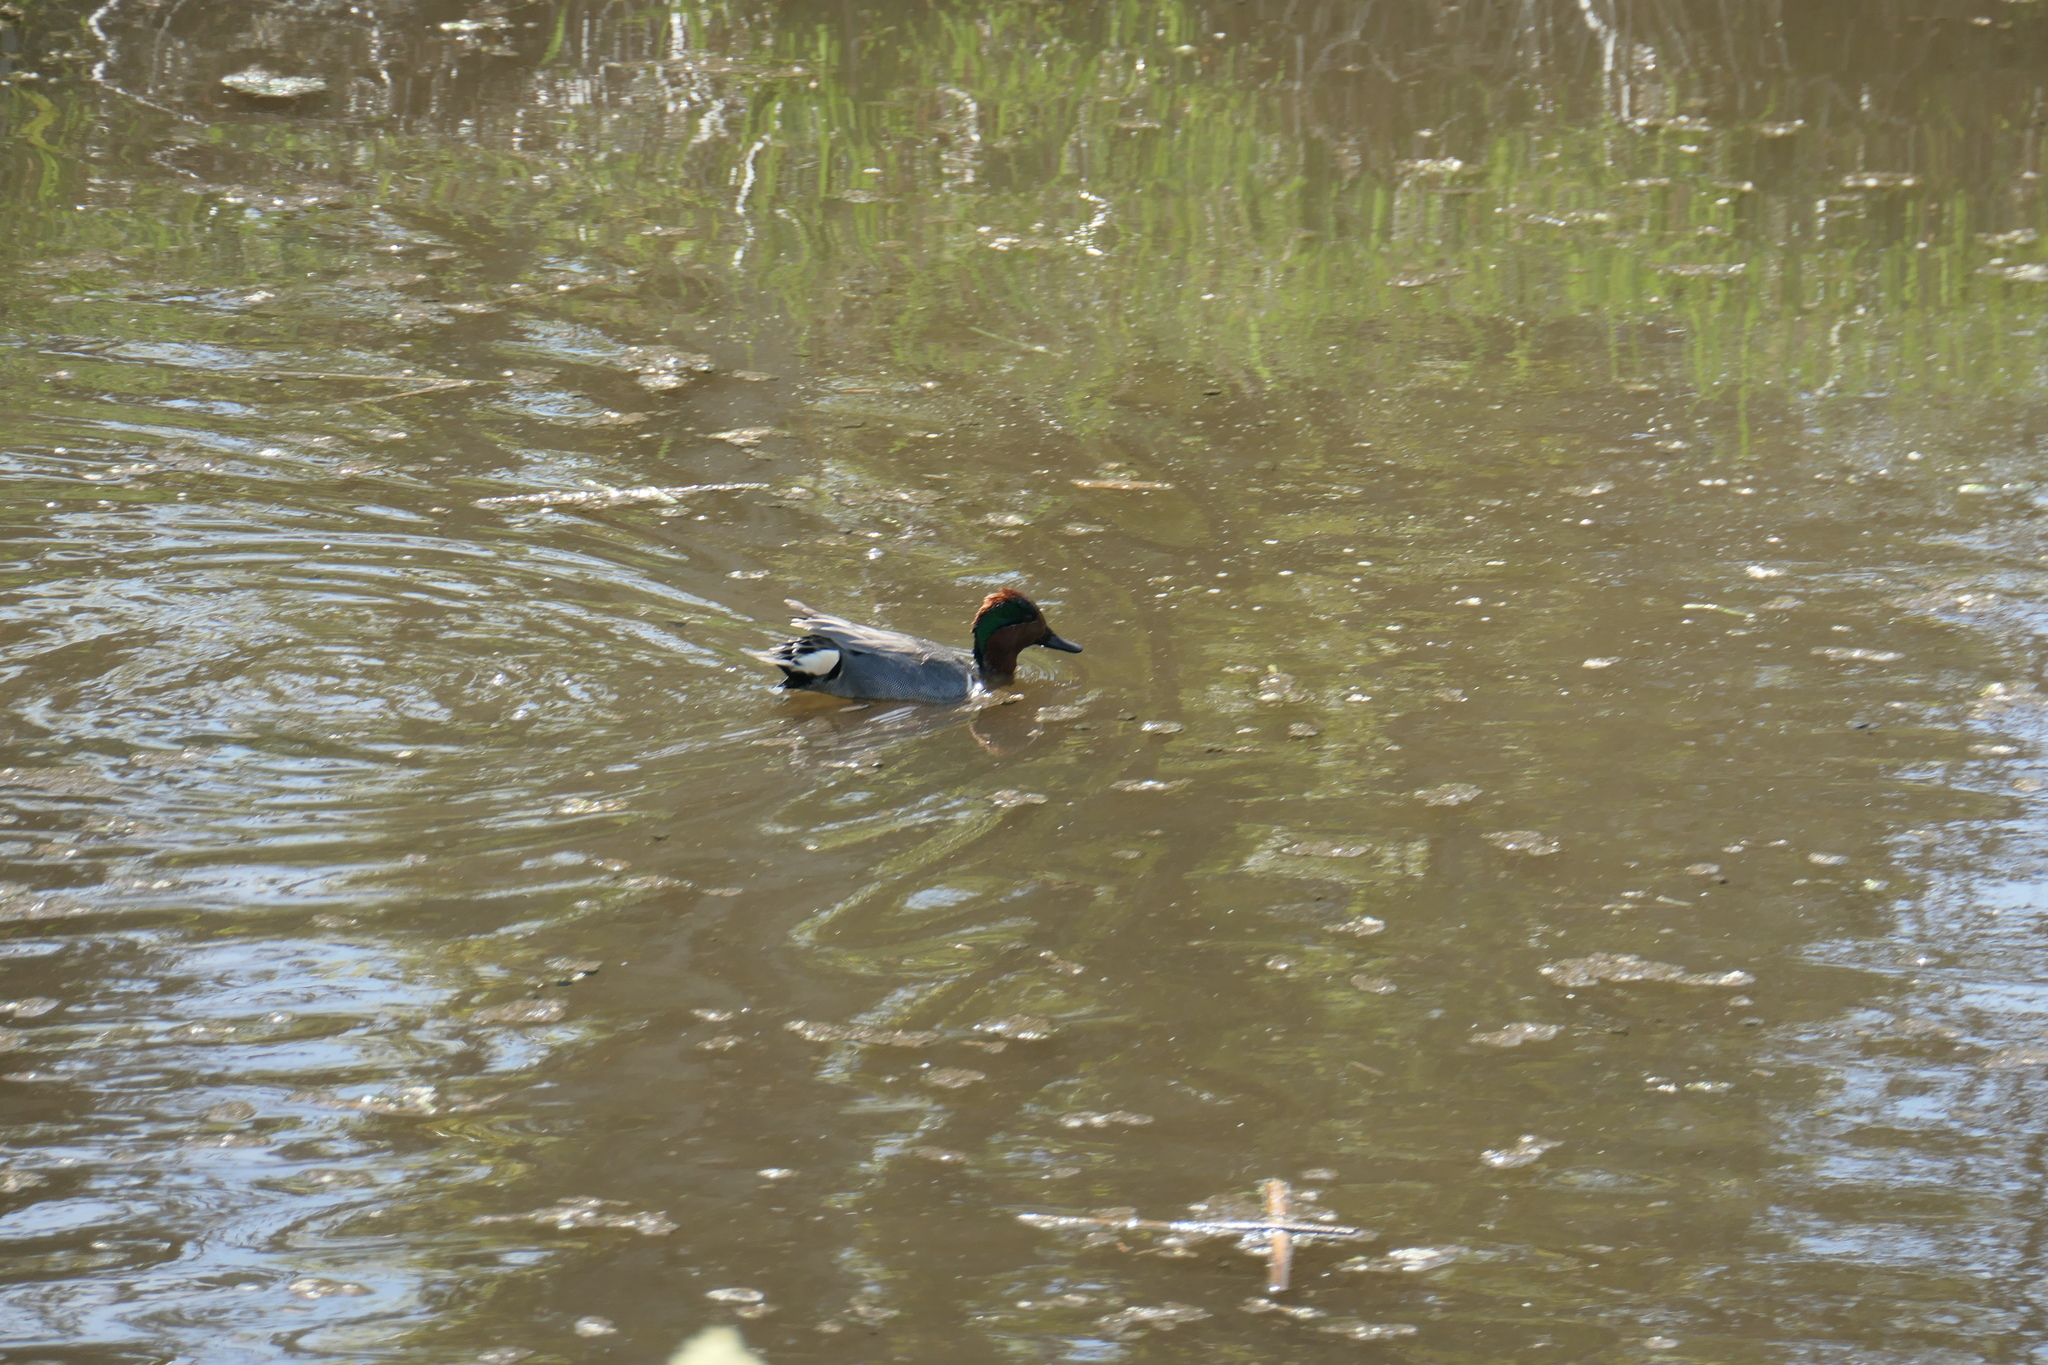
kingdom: Animalia
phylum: Chordata
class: Aves
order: Anseriformes
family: Anatidae
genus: Anas
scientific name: Anas crecca
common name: Eurasian teal
